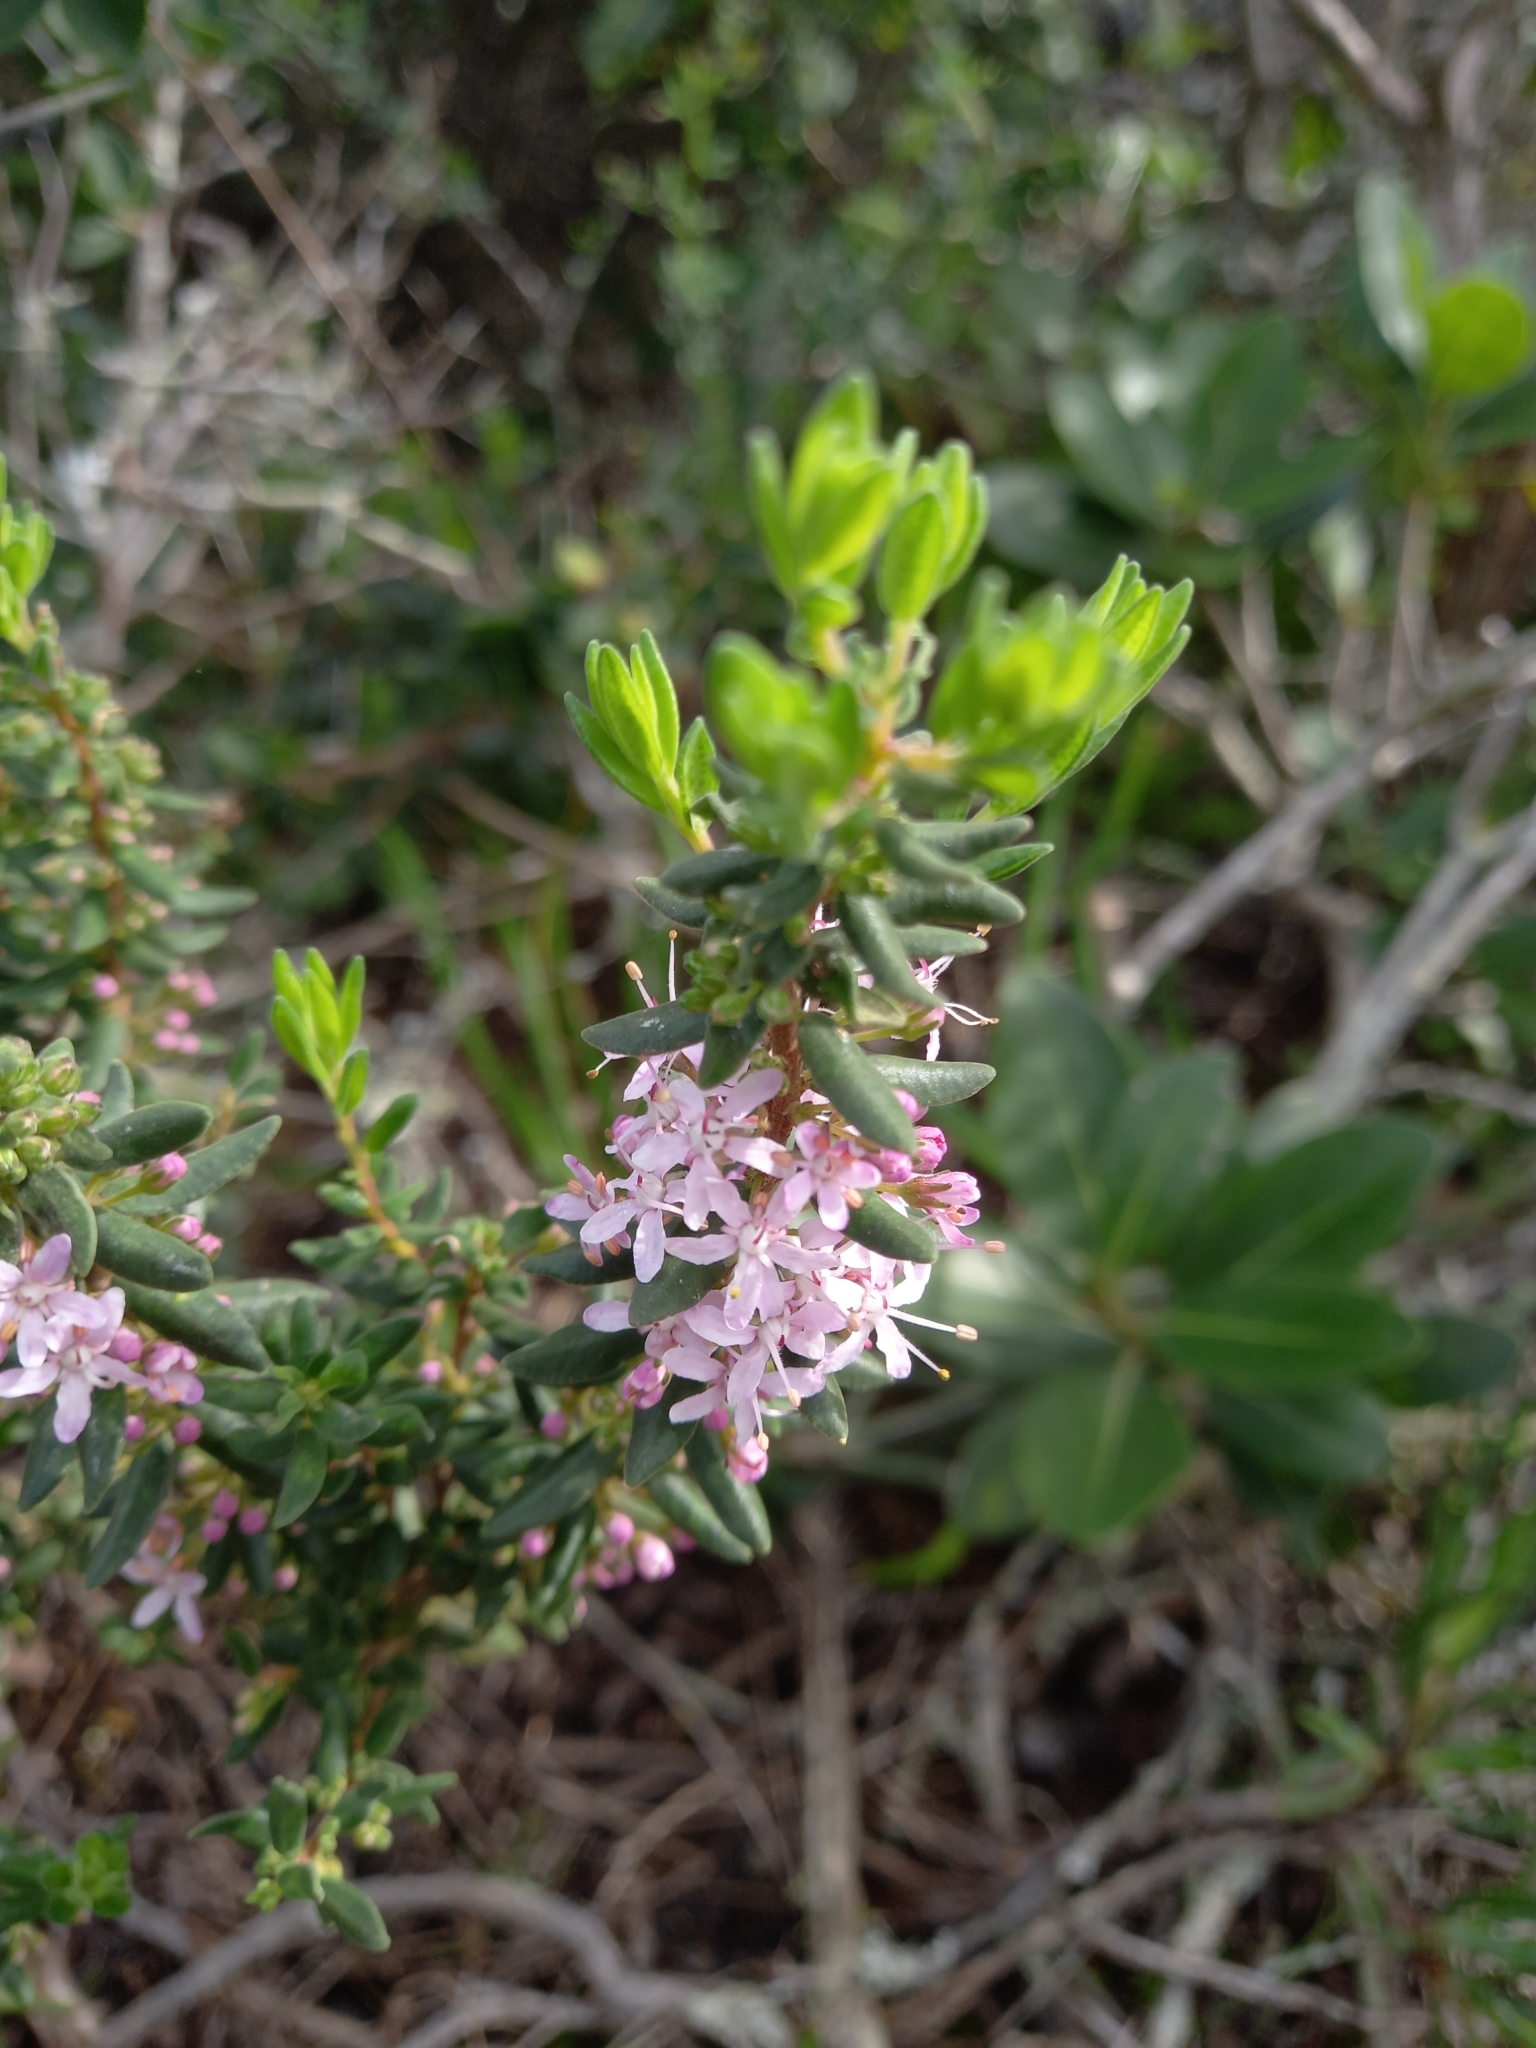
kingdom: Plantae
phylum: Tracheophyta
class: Magnoliopsida
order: Sapindales
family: Rutaceae
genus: Agathosma
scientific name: Agathosma microcarpa
